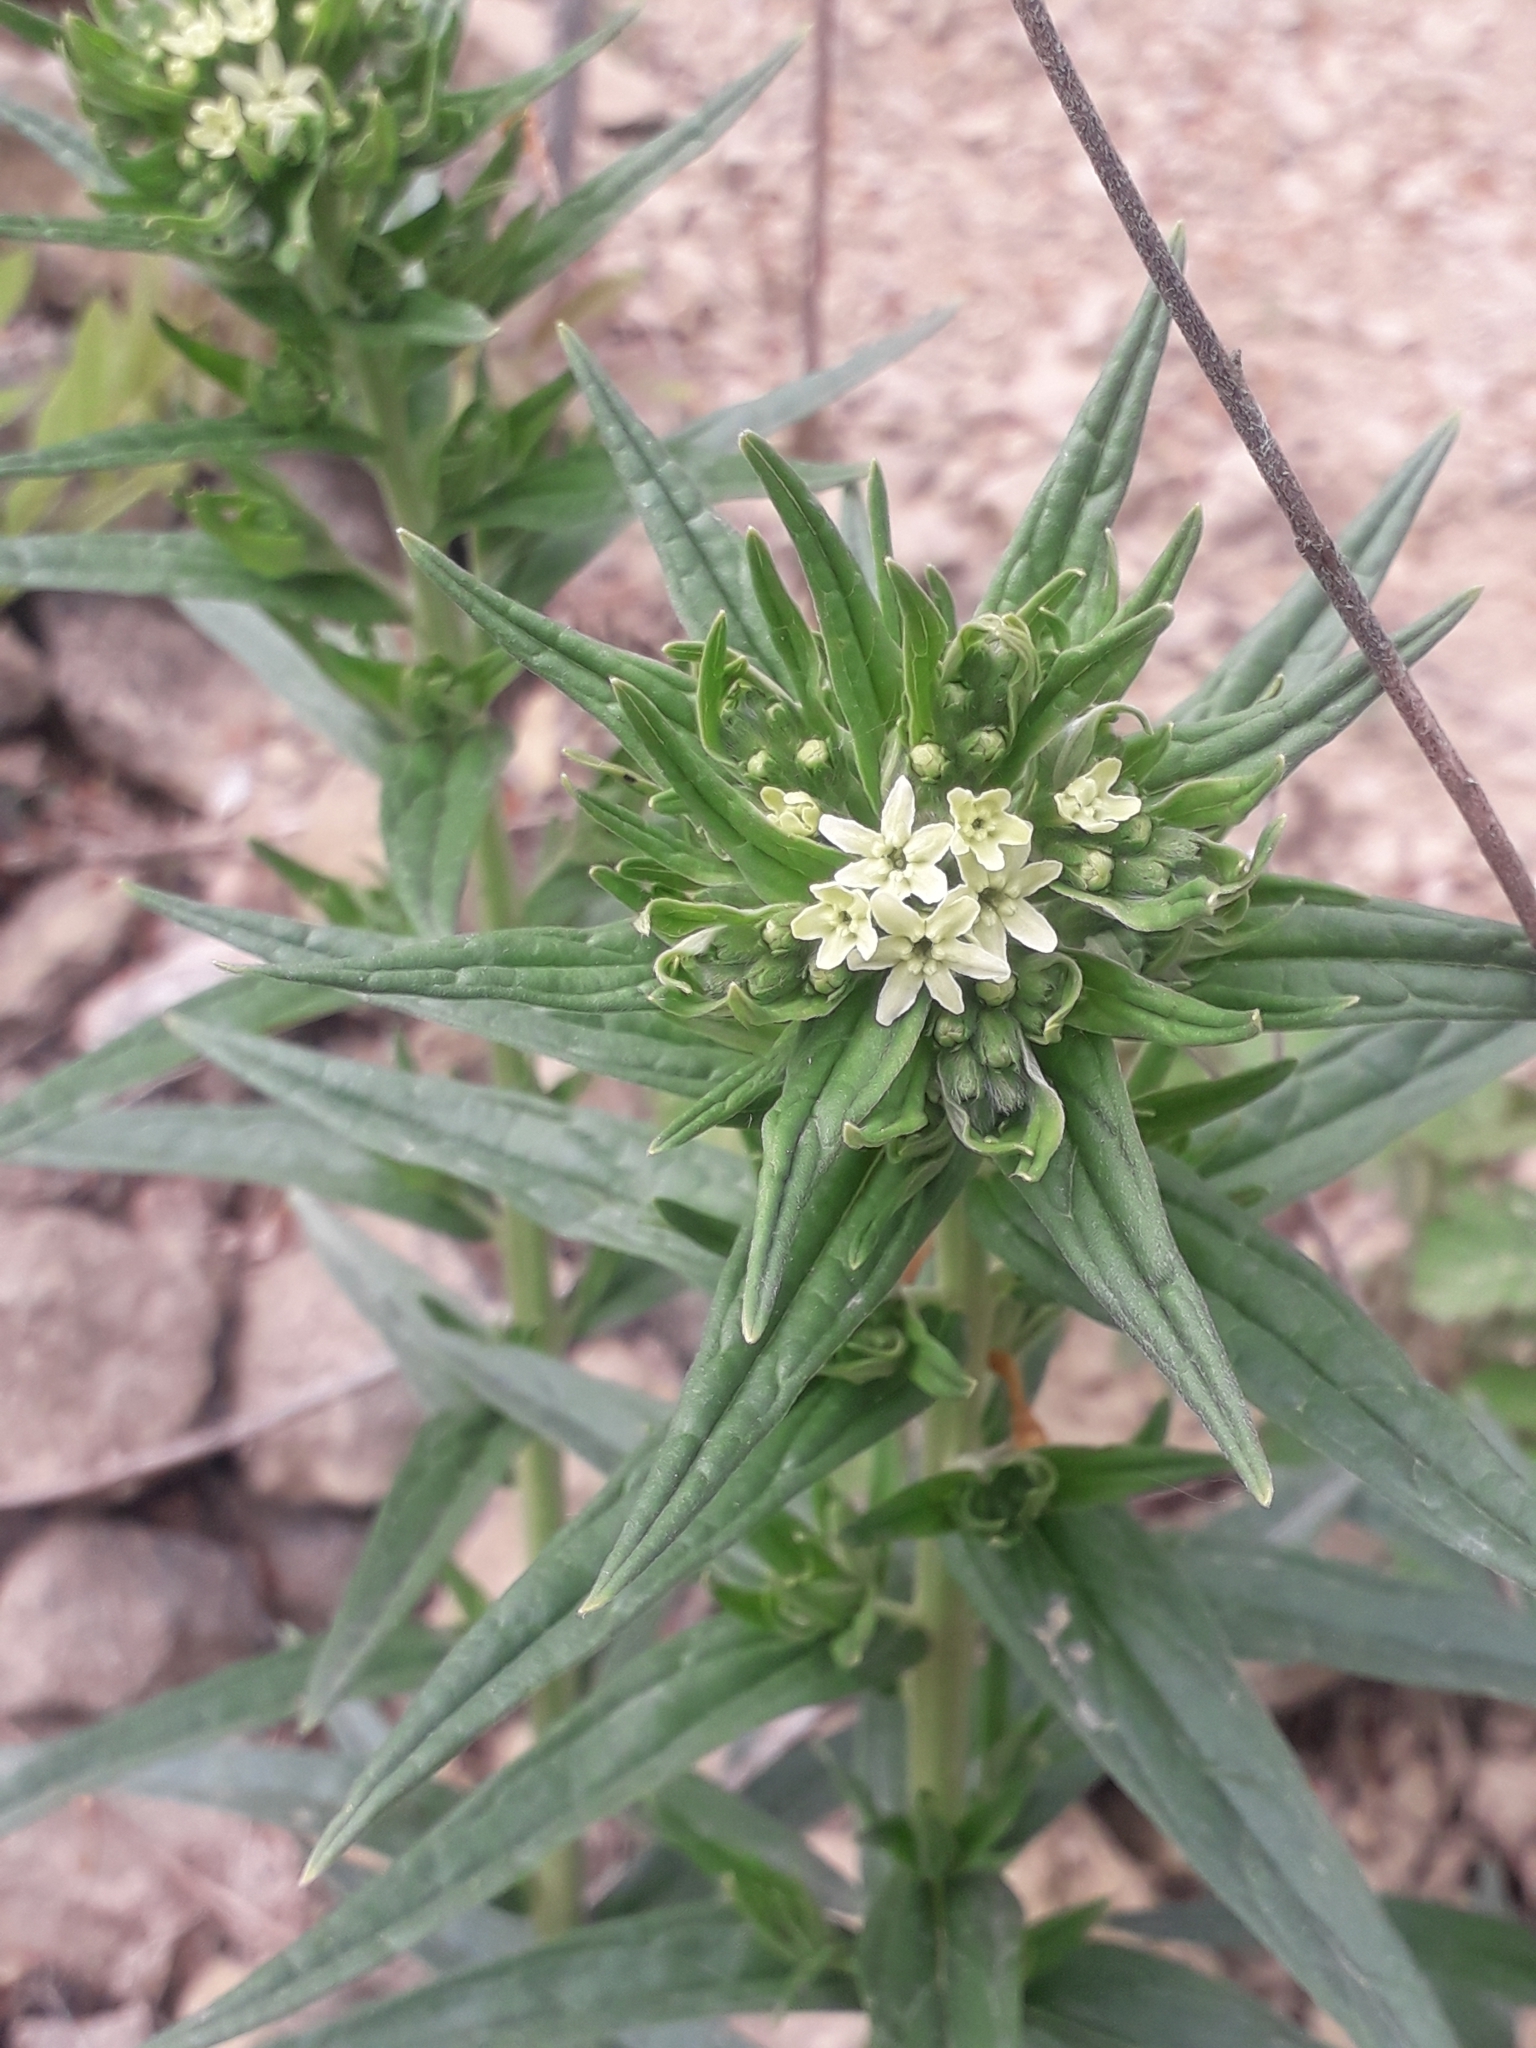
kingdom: Plantae
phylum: Tracheophyta
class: Magnoliopsida
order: Boraginales
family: Boraginaceae
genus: Lithospermum
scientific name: Lithospermum officinale
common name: Common gromwell
